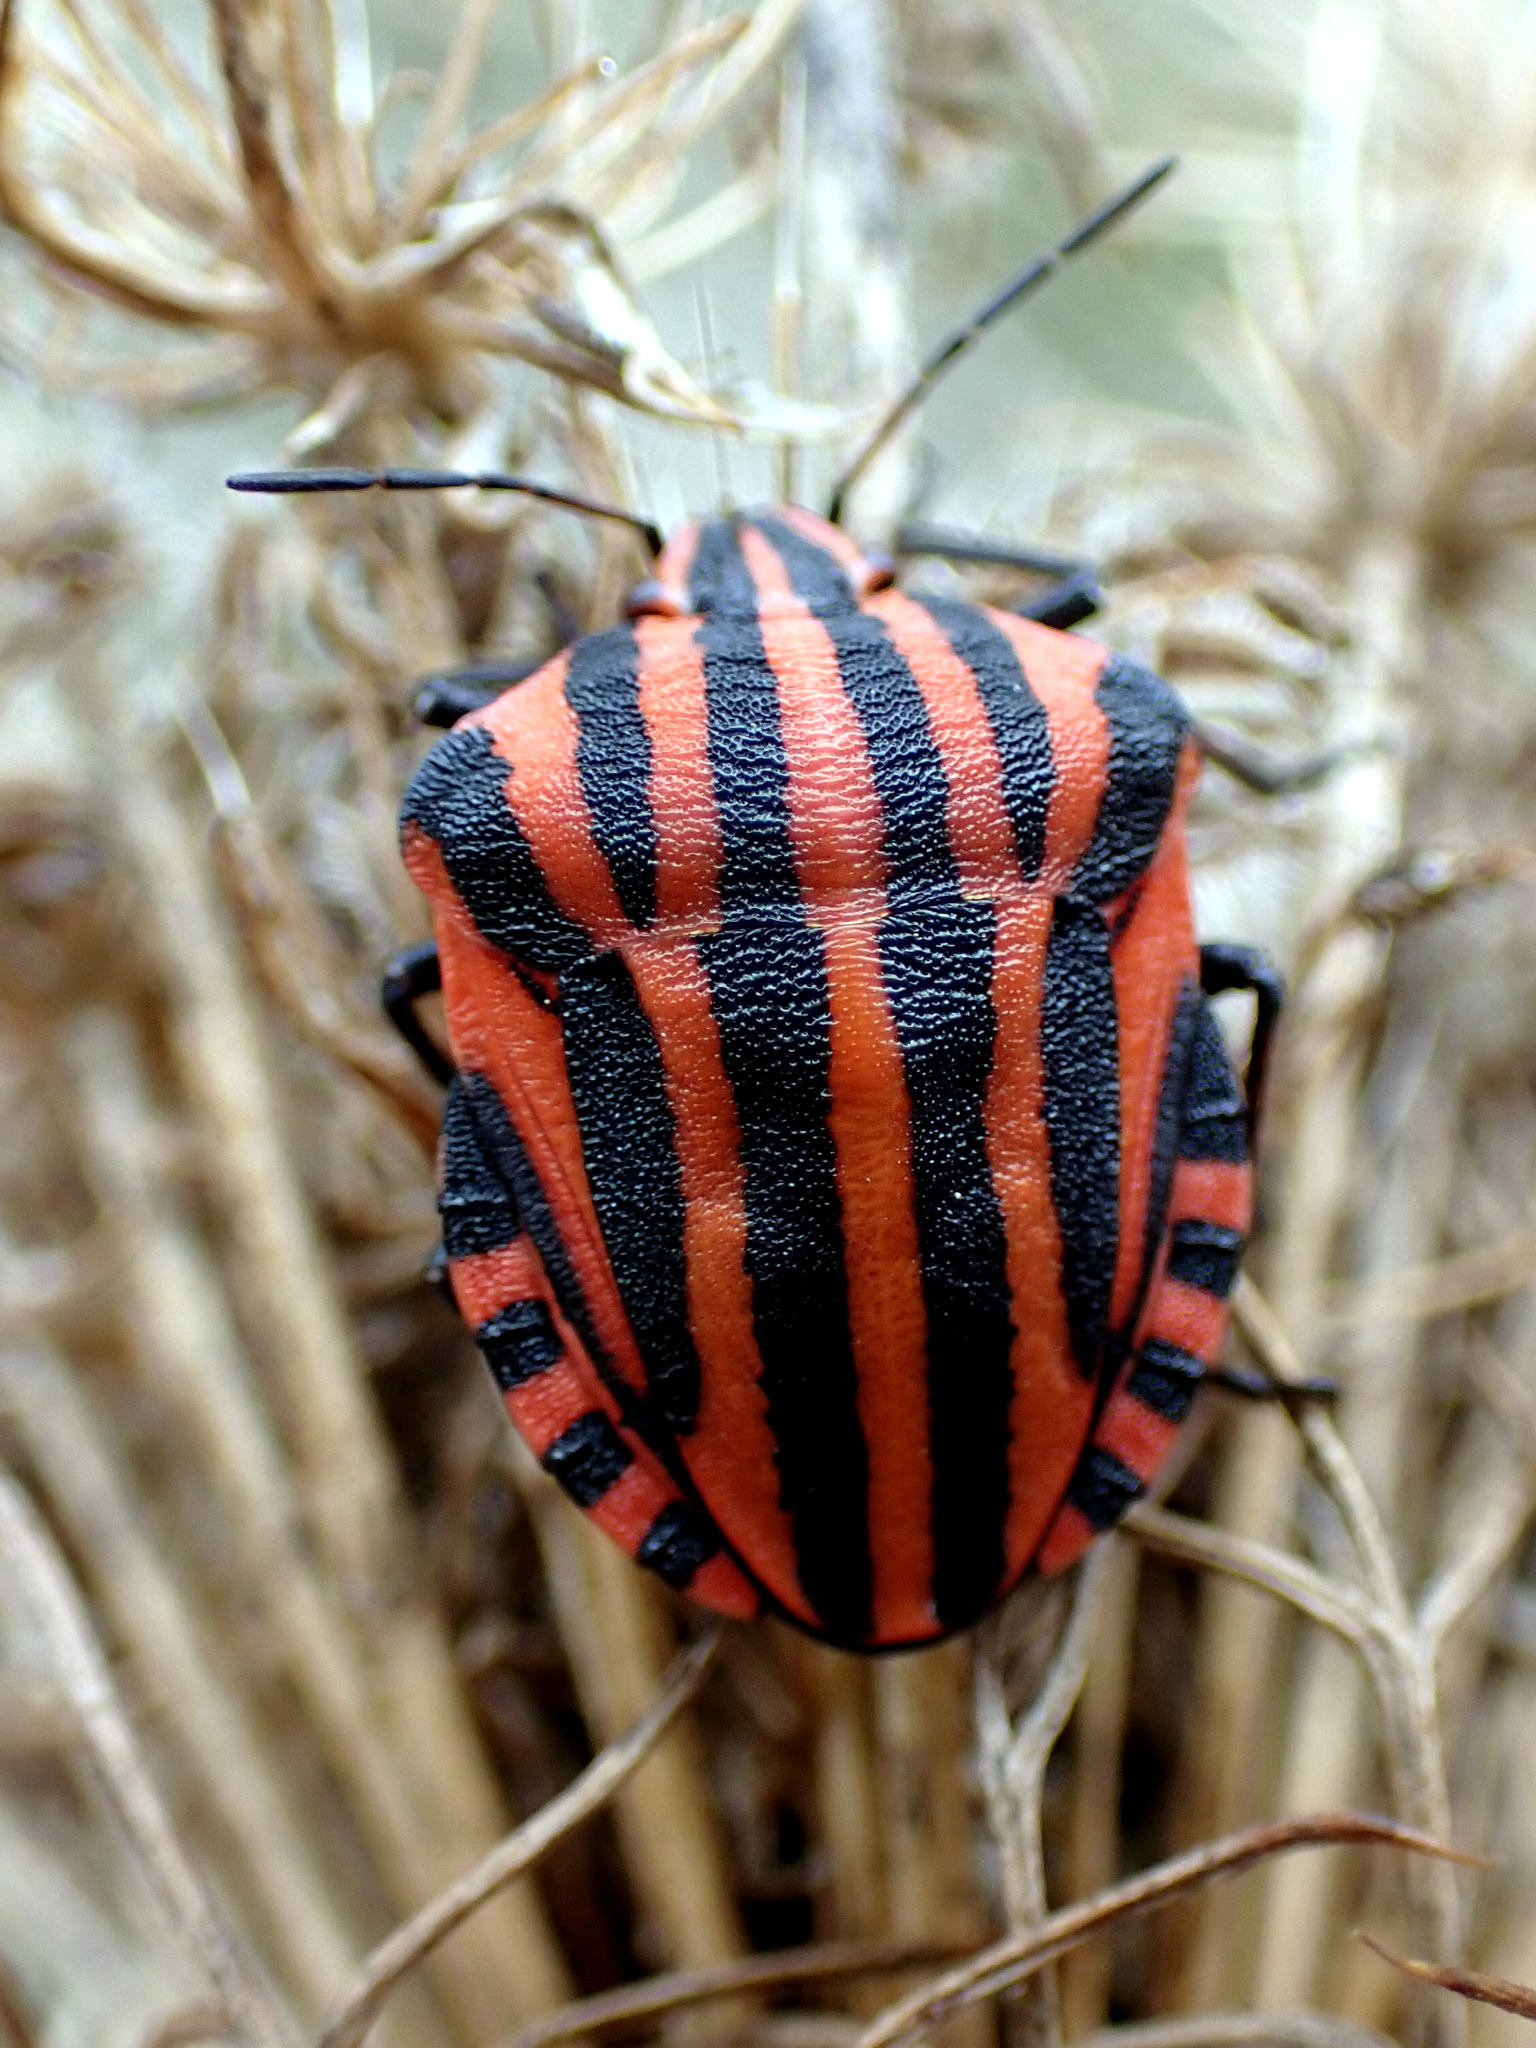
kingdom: Animalia
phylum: Arthropoda
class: Insecta
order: Hemiptera
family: Pentatomidae
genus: Graphosoma
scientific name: Graphosoma italicum
